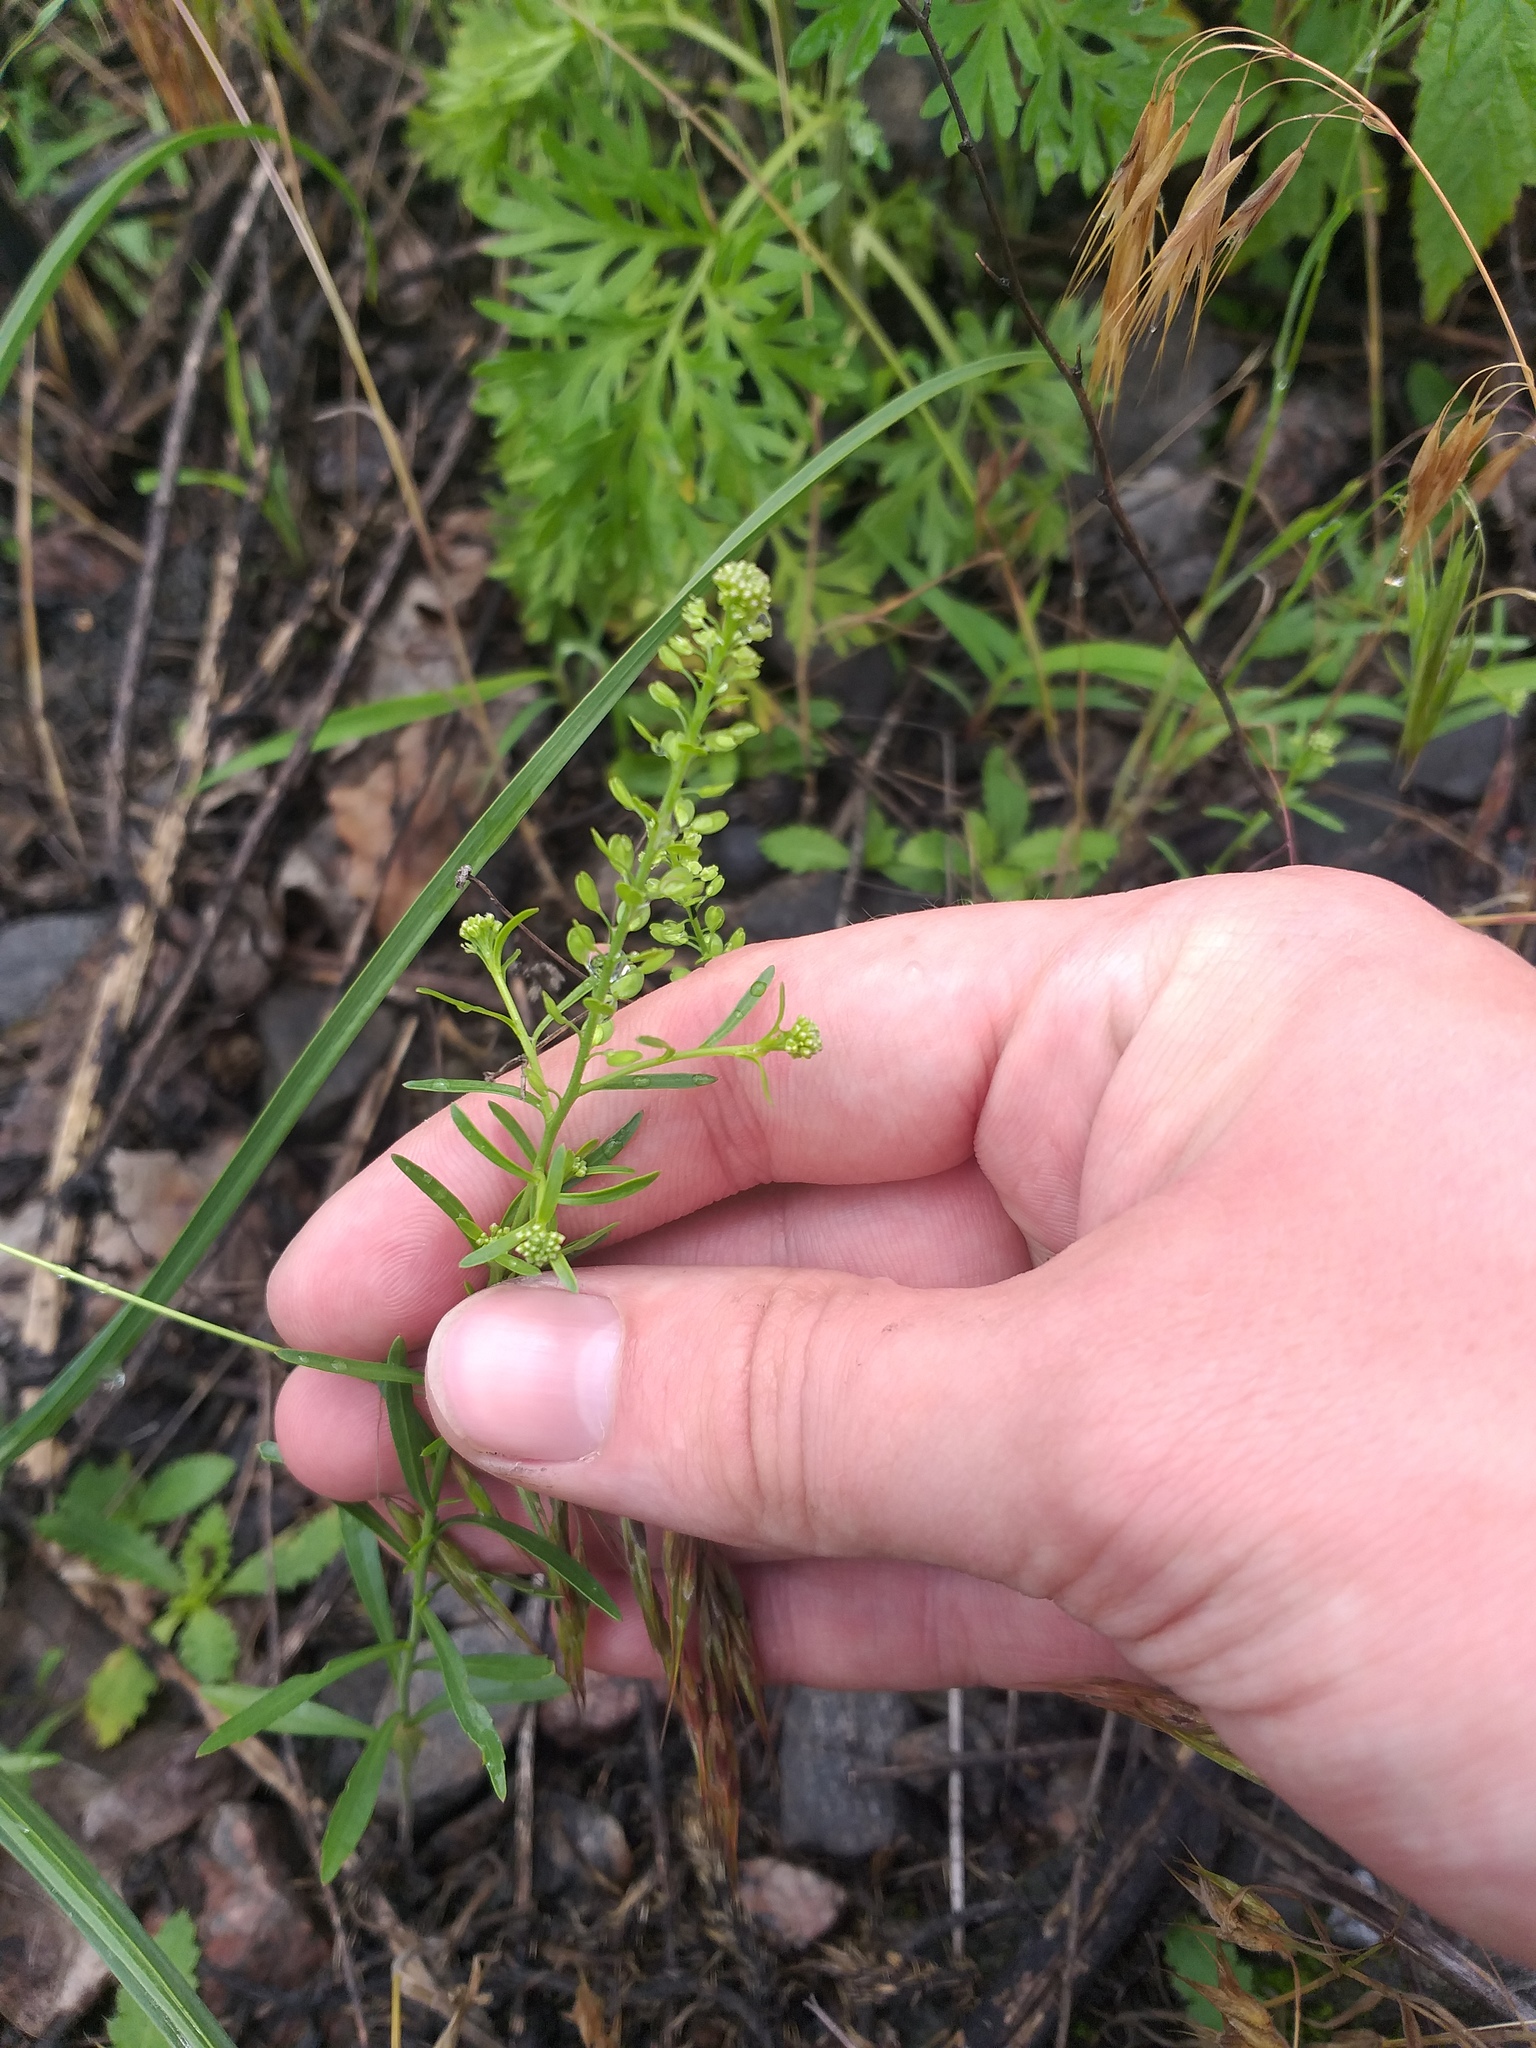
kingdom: Plantae
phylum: Tracheophyta
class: Magnoliopsida
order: Brassicales
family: Brassicaceae
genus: Lepidium
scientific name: Lepidium densiflorum
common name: Miner's pepperwort
